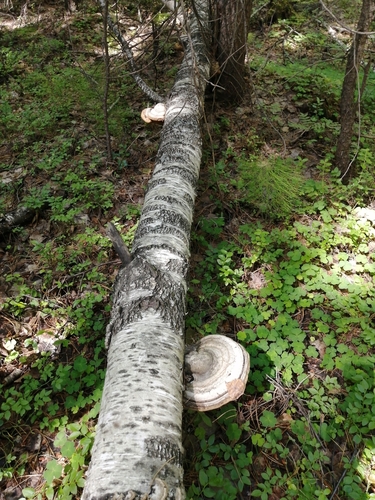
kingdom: Fungi
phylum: Basidiomycota
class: Agaricomycetes
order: Polyporales
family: Polyporaceae
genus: Fomes
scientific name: Fomes fomentarius
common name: Hoof fungus
